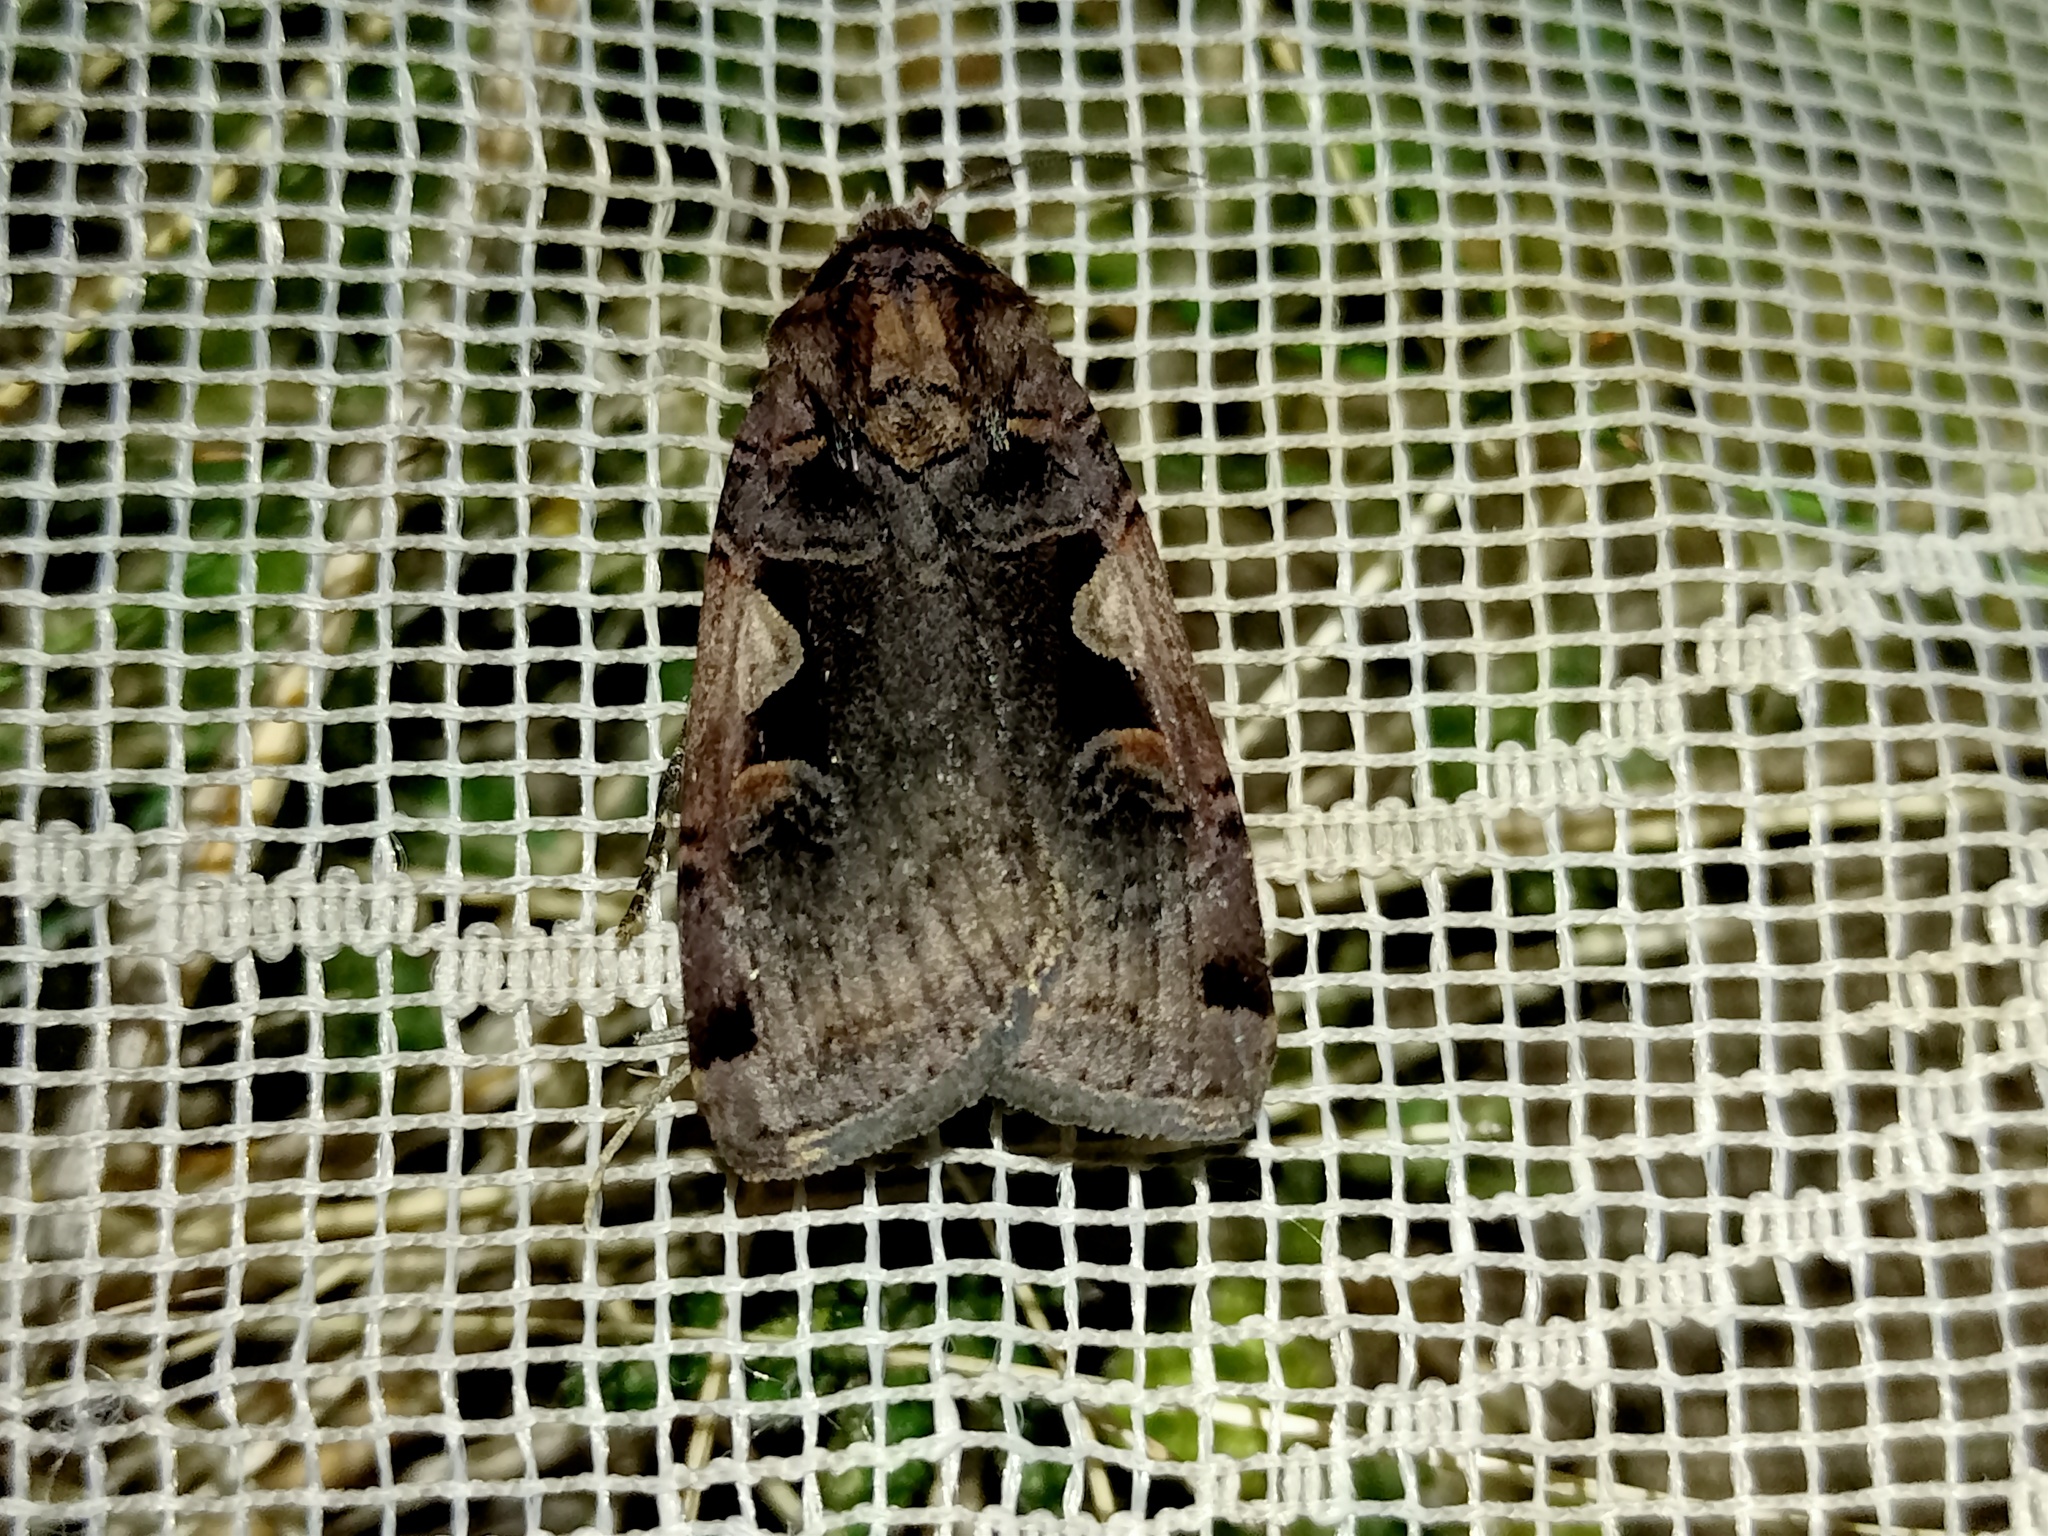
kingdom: Animalia
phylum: Arthropoda
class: Insecta
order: Lepidoptera
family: Noctuidae
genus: Xestia
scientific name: Xestia c-nigrum
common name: Setaceous hebrew character
